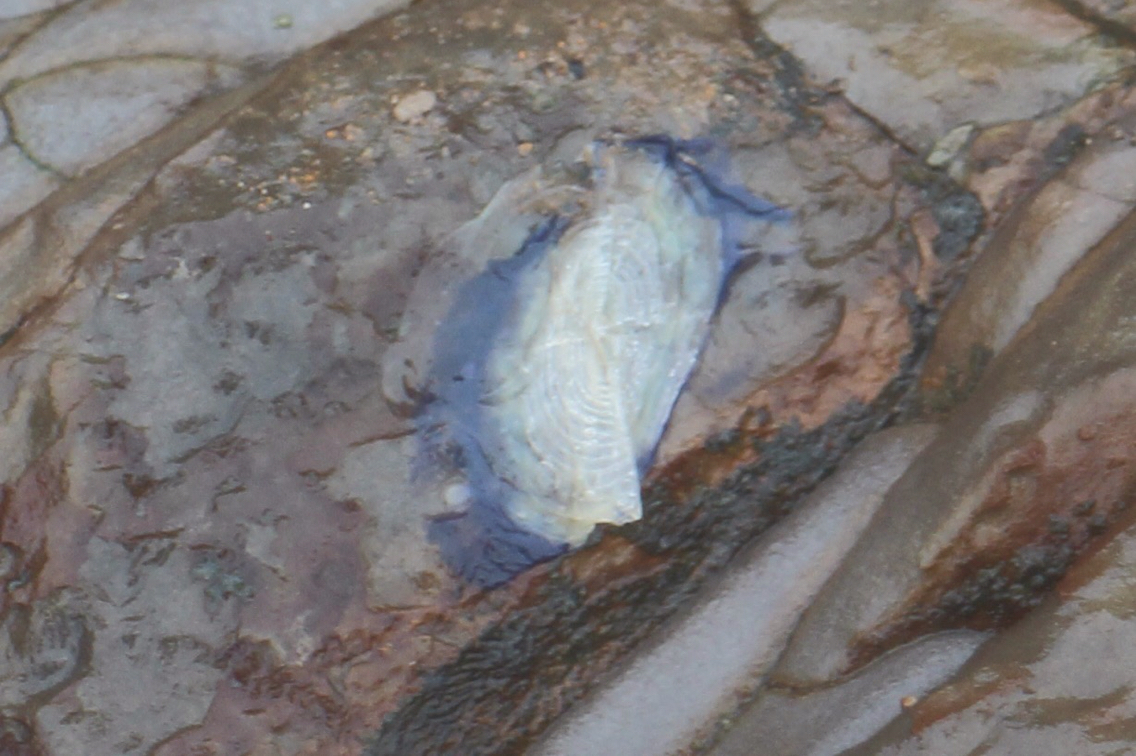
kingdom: Animalia
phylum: Cnidaria
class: Hydrozoa
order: Anthoathecata
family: Porpitidae
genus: Velella
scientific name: Velella velella
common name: By-the-wind-sailor
